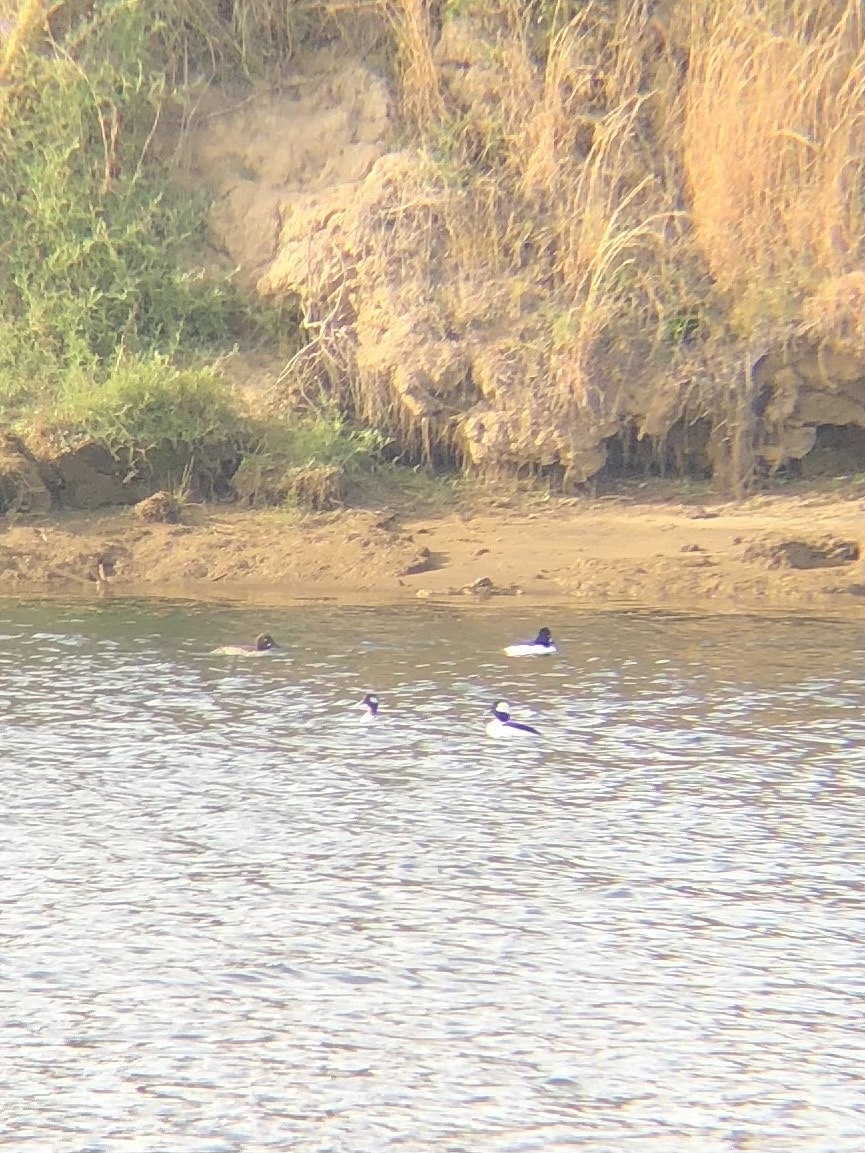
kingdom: Animalia
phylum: Chordata
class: Aves
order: Anseriformes
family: Anatidae
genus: Bucephala
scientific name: Bucephala albeola
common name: Bufflehead
